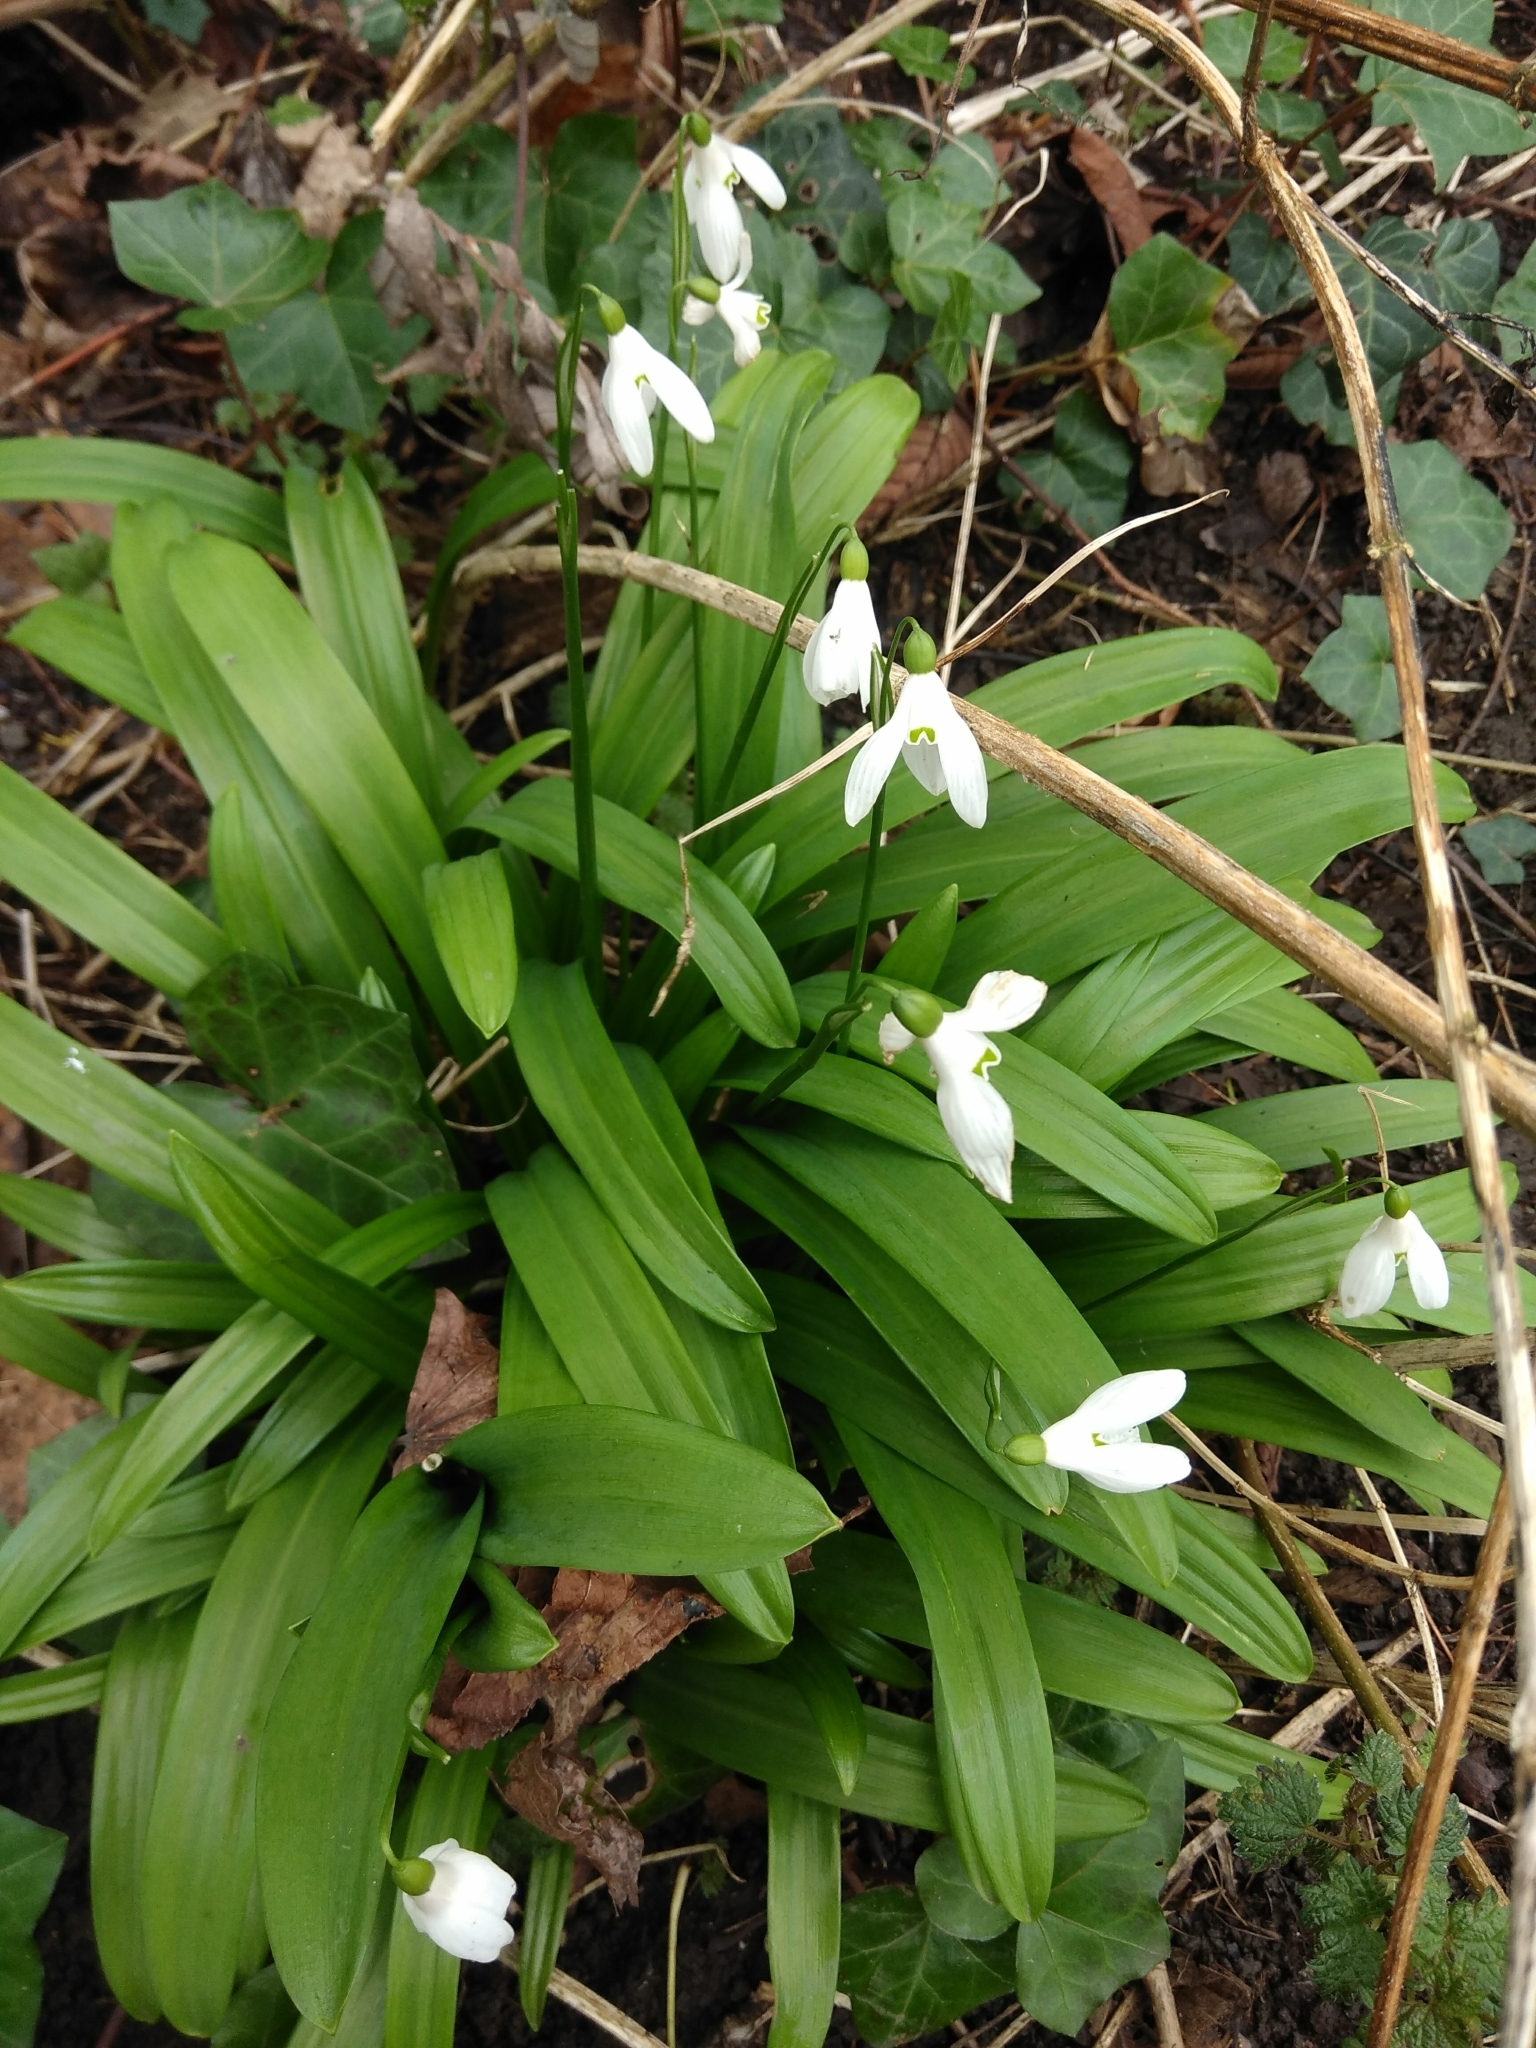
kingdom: Plantae
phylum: Tracheophyta
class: Liliopsida
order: Asparagales
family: Amaryllidaceae
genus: Galanthus
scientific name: Galanthus woronowii
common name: Green snowdrop
